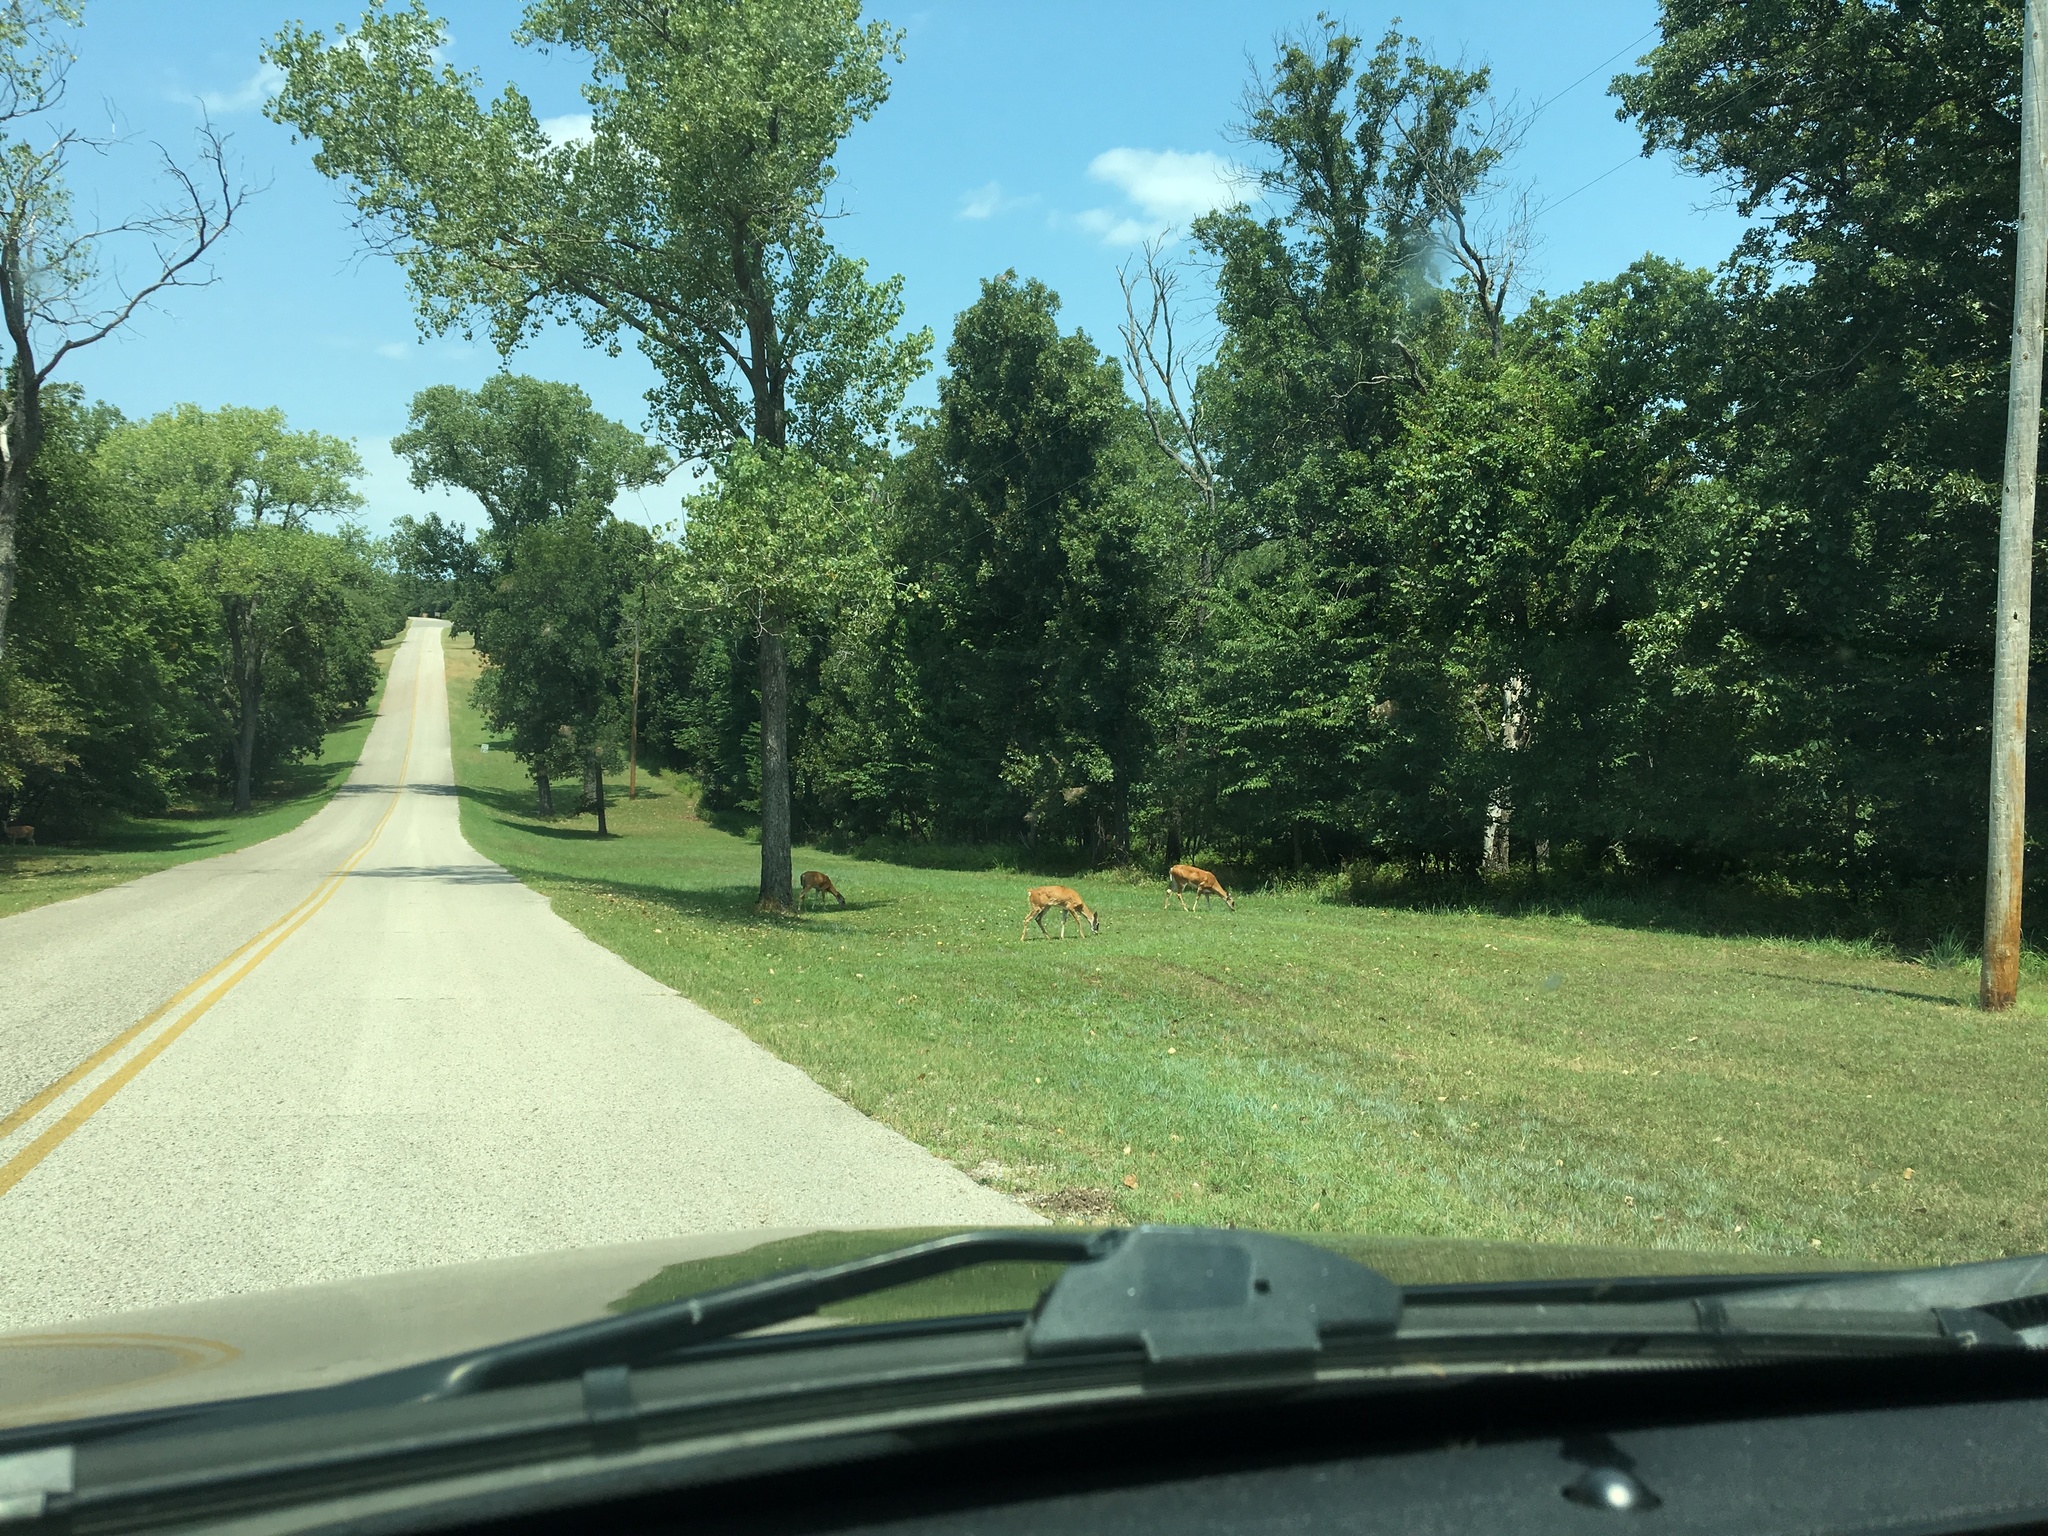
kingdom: Animalia
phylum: Chordata
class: Mammalia
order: Artiodactyla
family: Cervidae
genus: Odocoileus
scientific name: Odocoileus virginianus
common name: White-tailed deer
